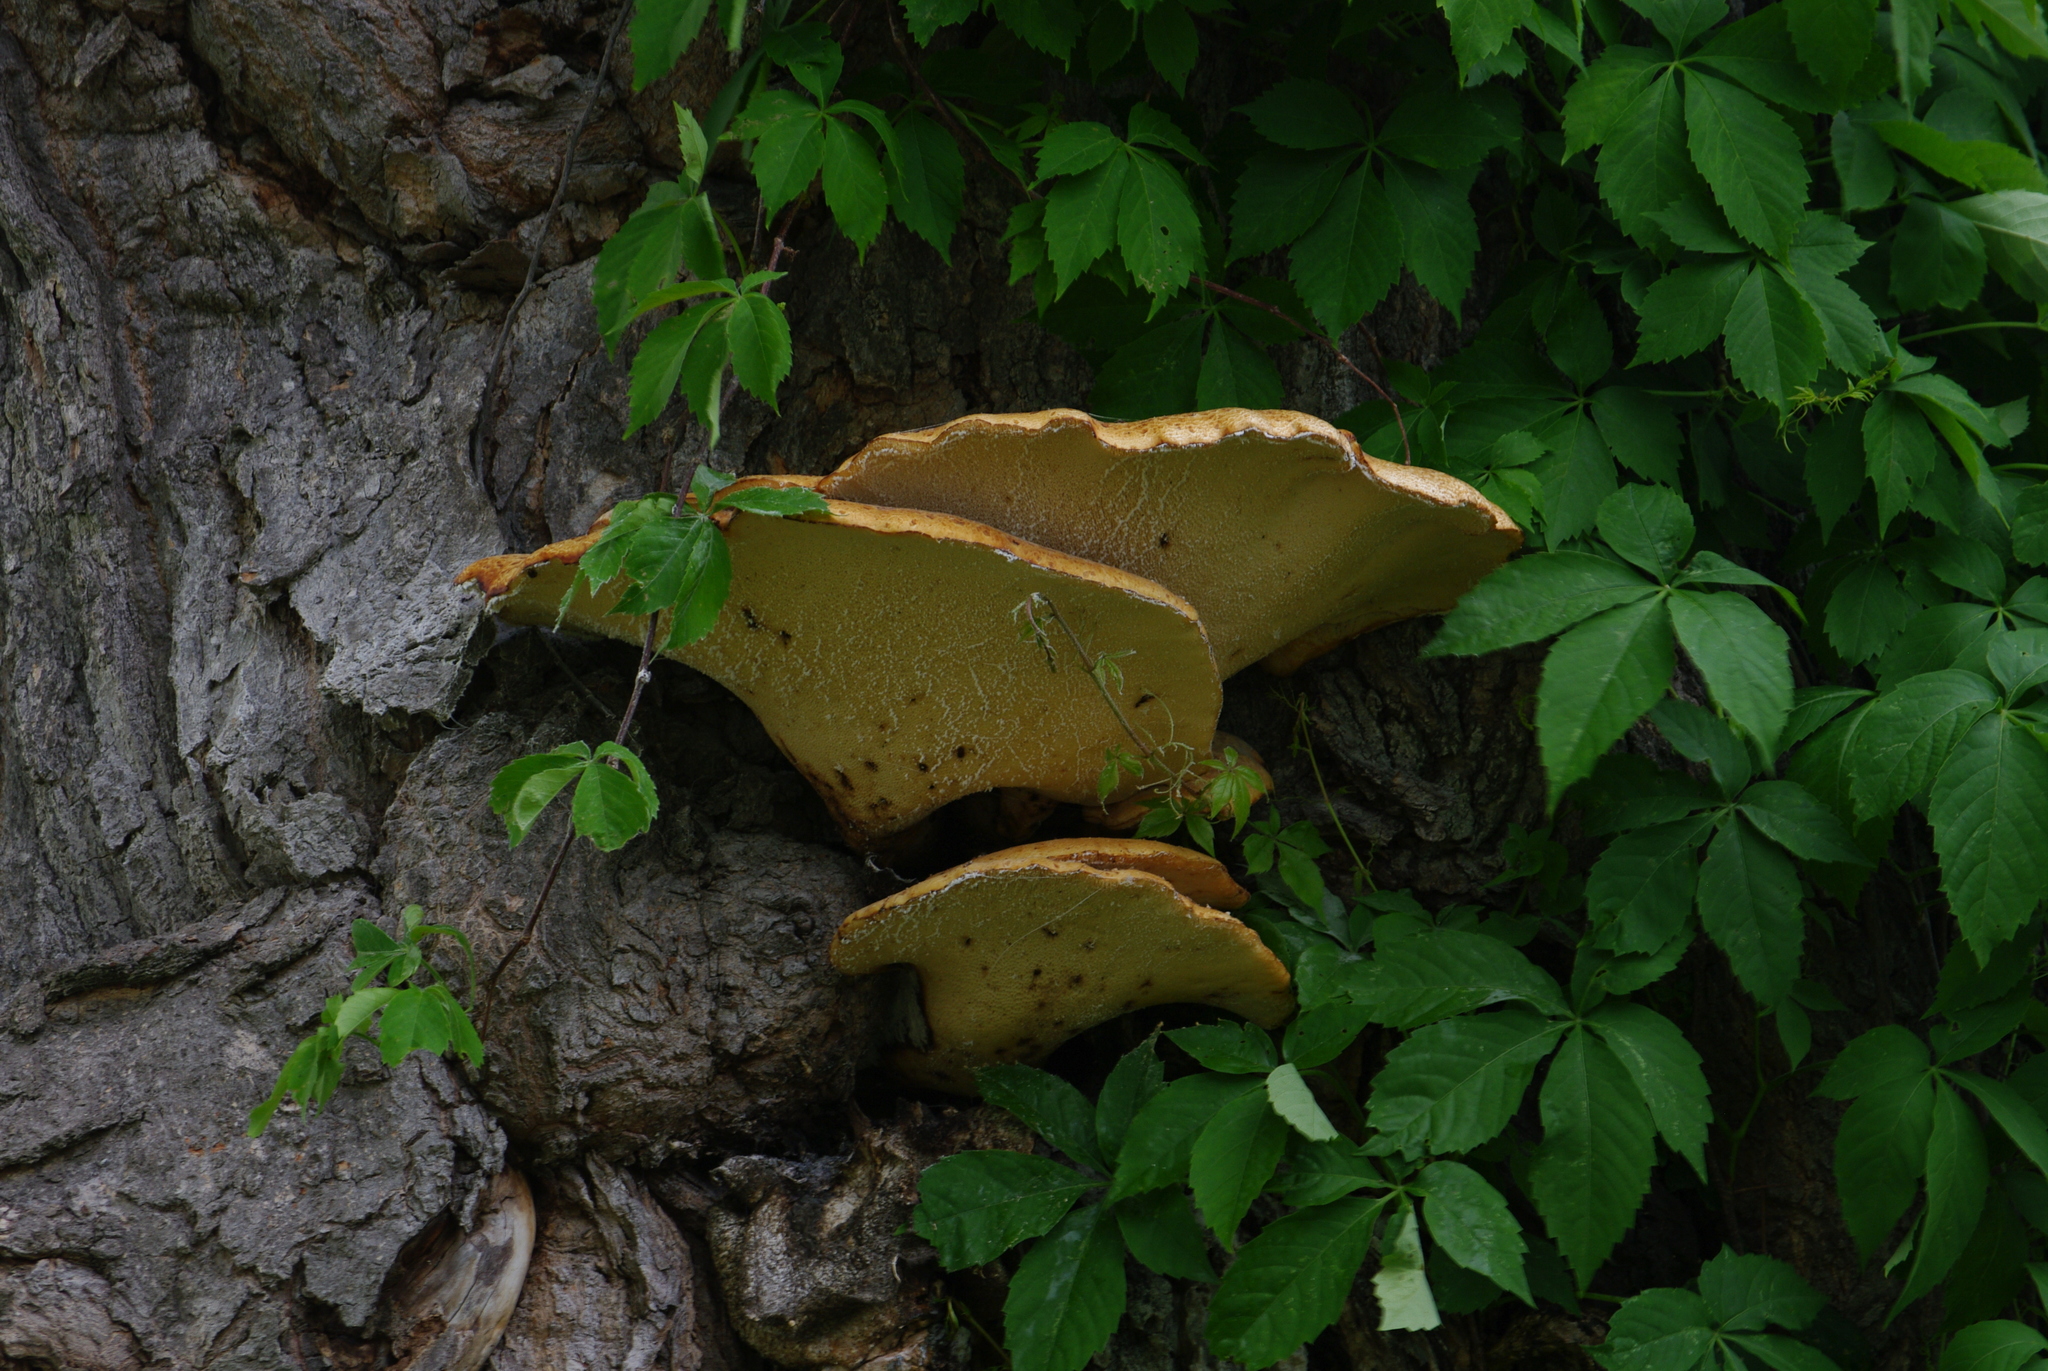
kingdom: Fungi
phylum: Basidiomycota
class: Agaricomycetes
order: Polyporales
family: Polyporaceae
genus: Cerioporus
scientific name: Cerioporus squamosus
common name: Dryad's saddle
